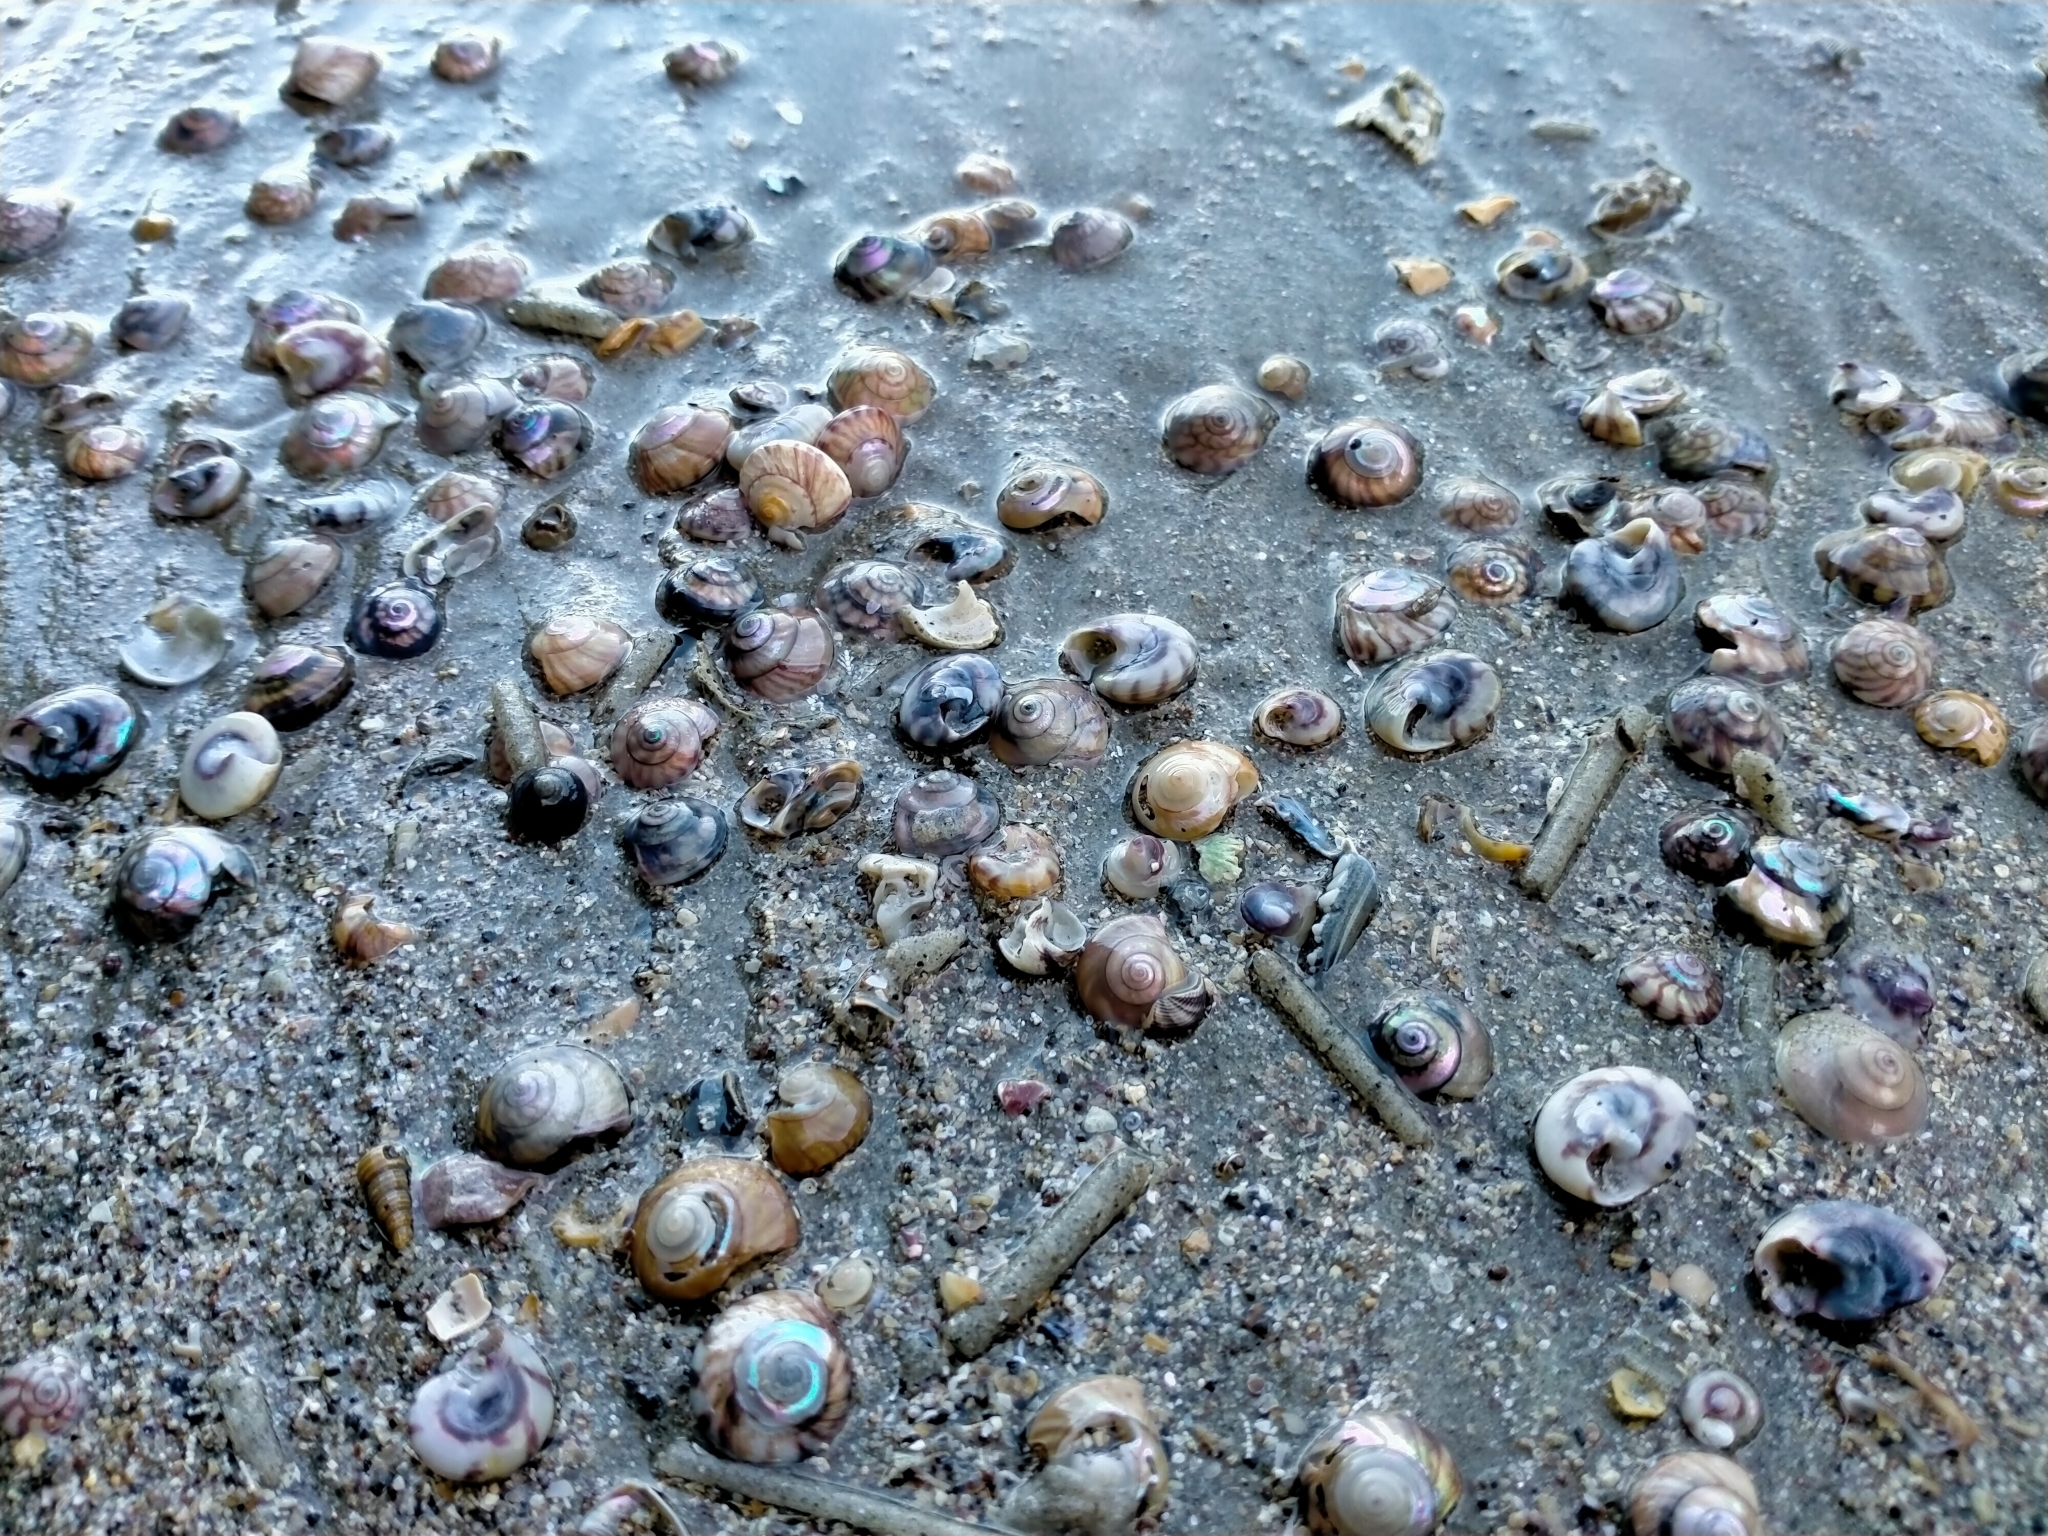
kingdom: Animalia
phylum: Mollusca
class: Gastropoda
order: Trochida
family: Trochidae
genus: Zethalia
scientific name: Zethalia zelandica
